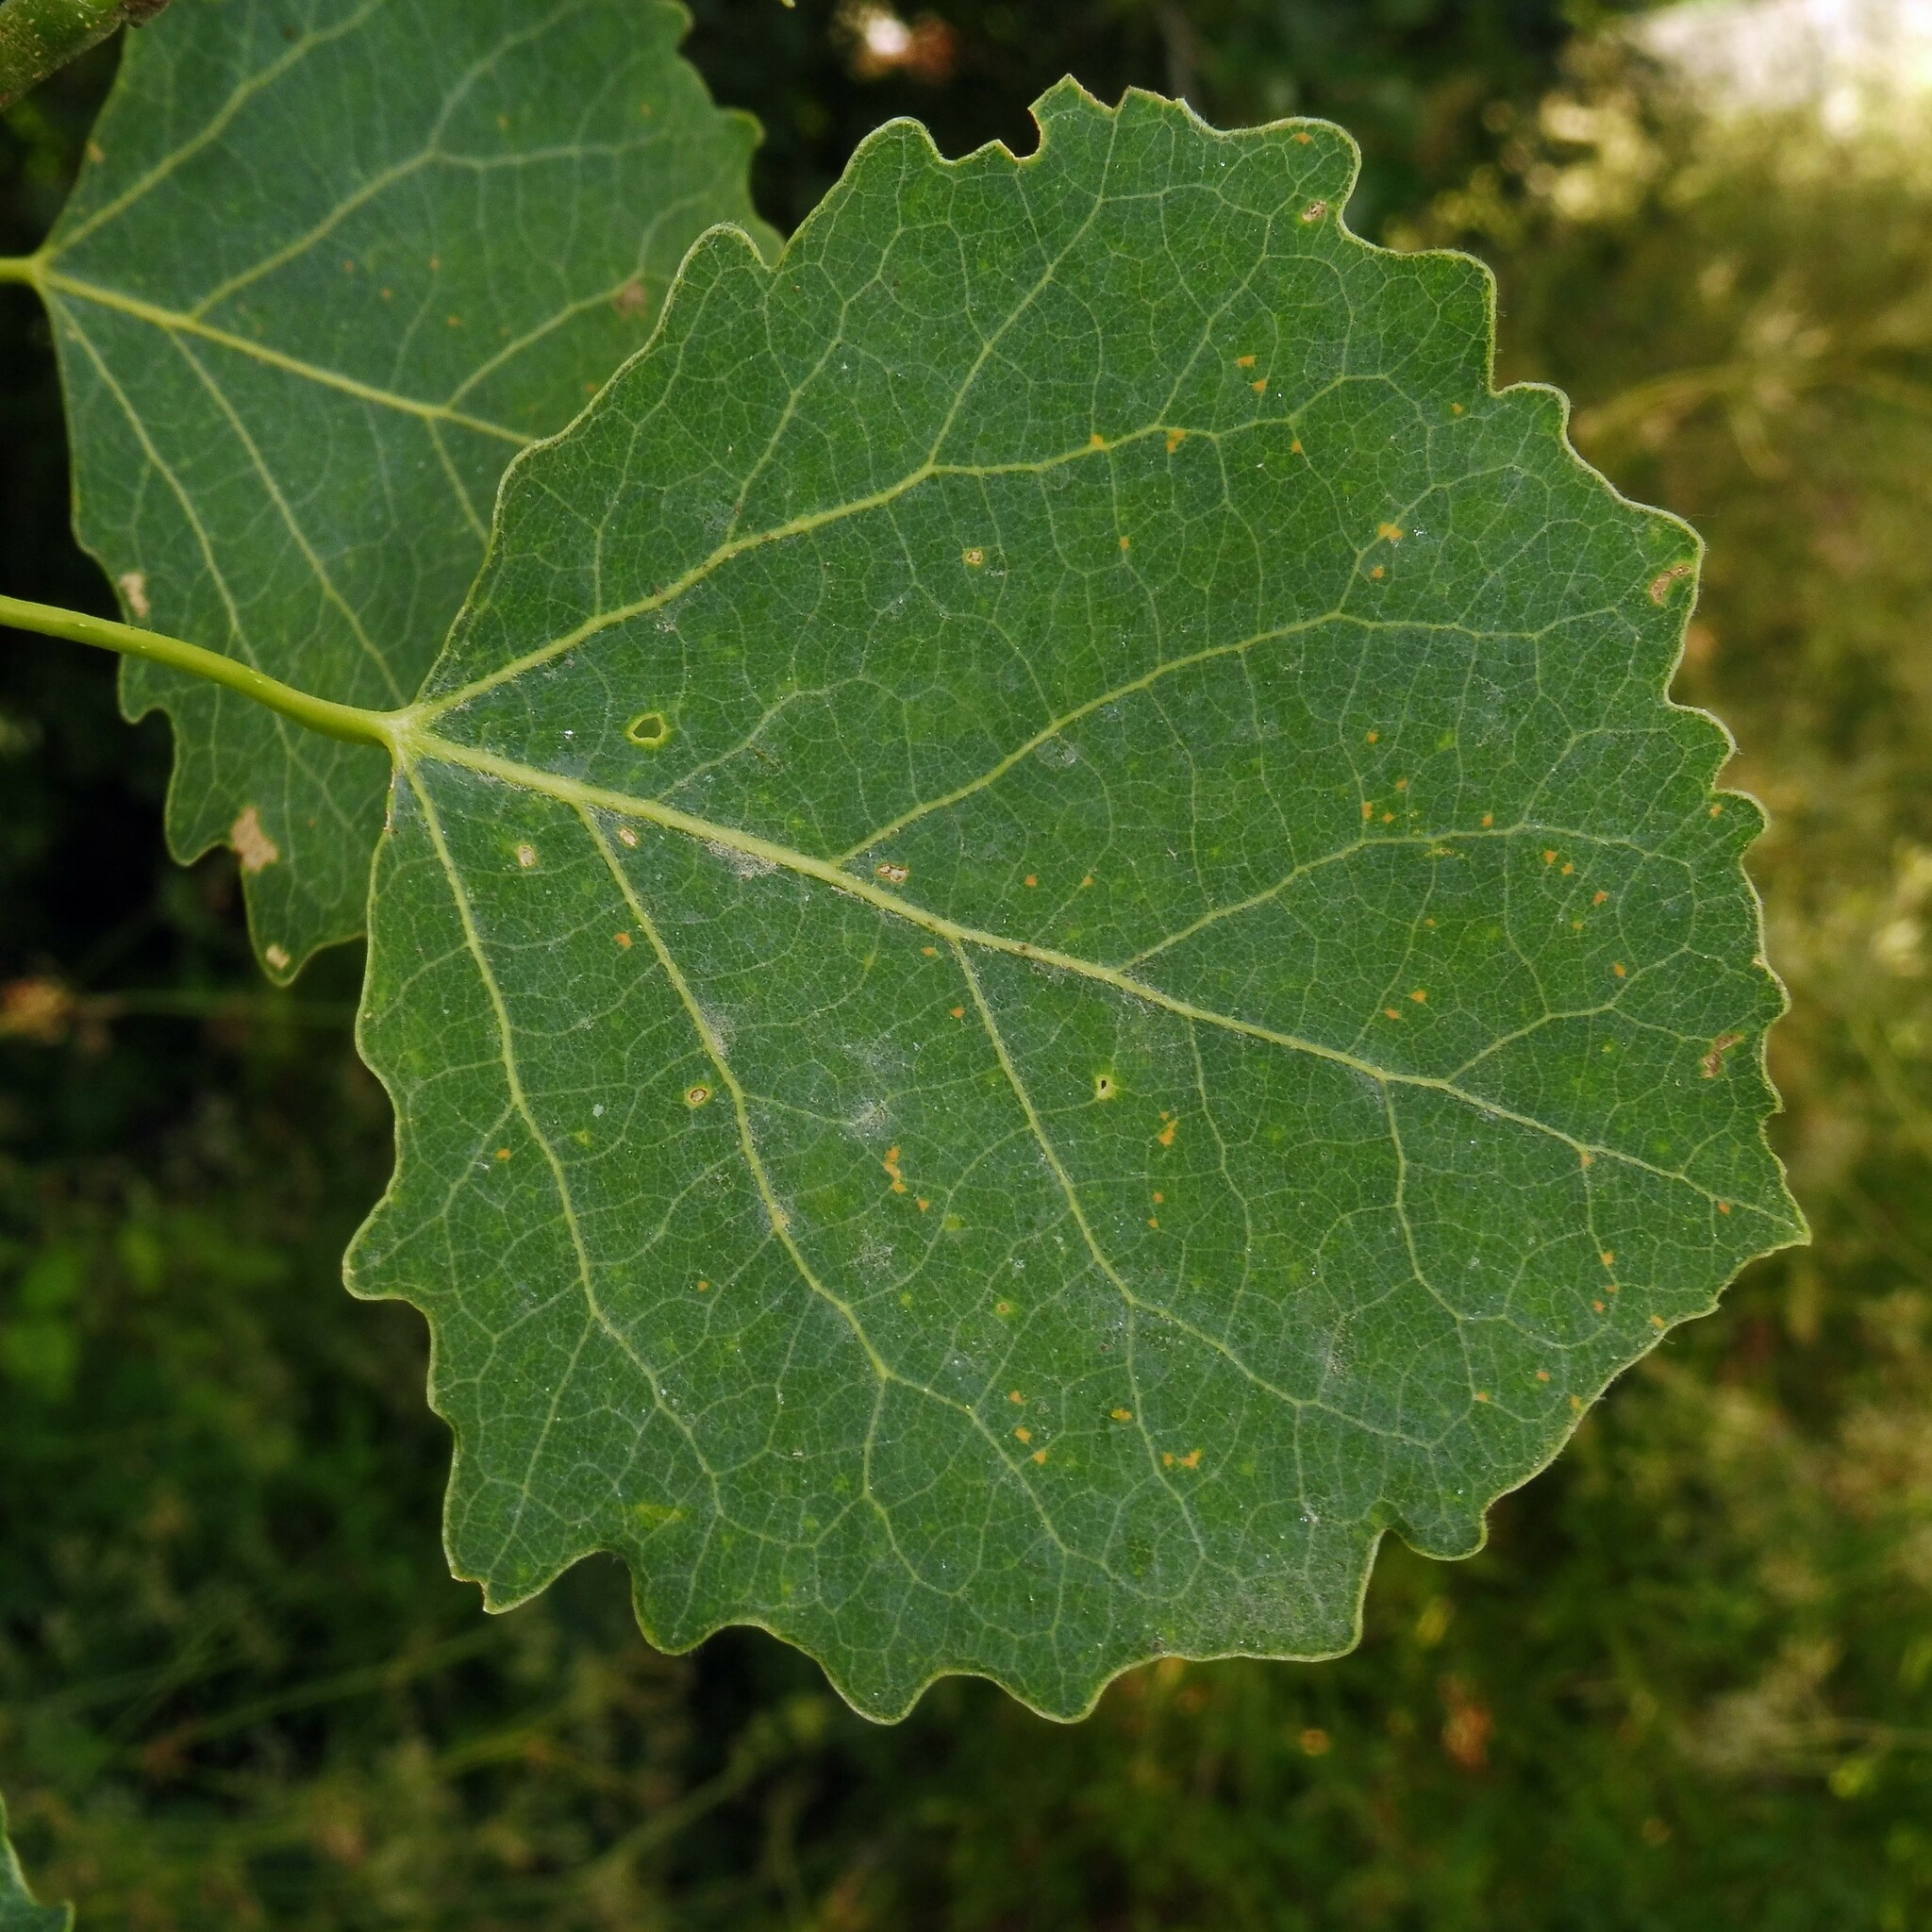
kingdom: Plantae
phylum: Tracheophyta
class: Magnoliopsida
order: Malpighiales
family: Salicaceae
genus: Populus
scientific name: Populus tremula
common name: European aspen
